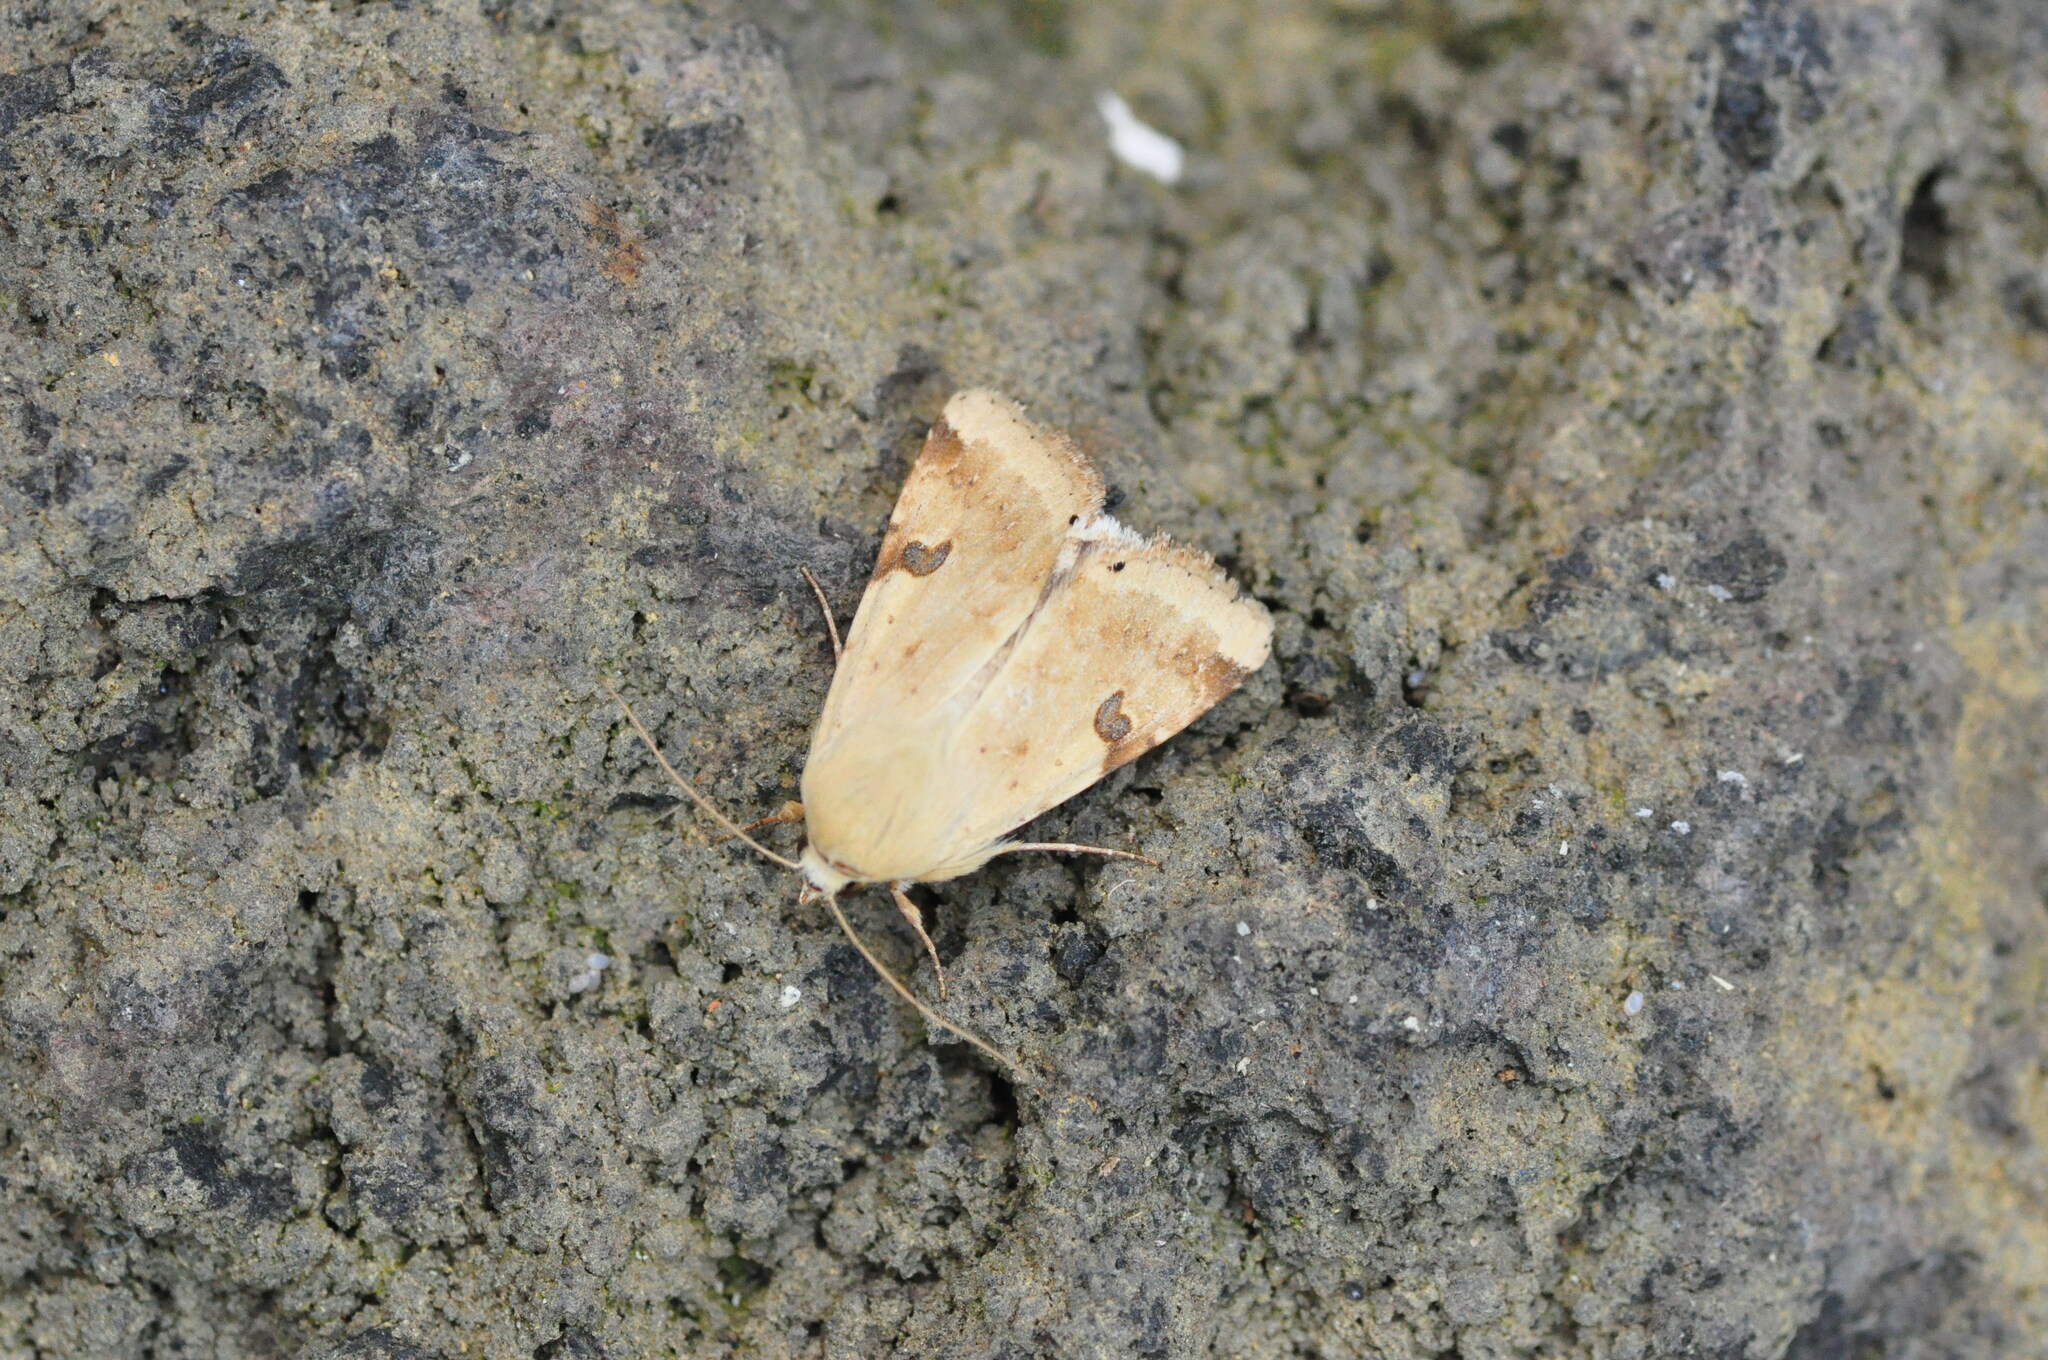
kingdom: Animalia
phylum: Arthropoda
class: Insecta
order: Lepidoptera
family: Noctuidae
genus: Heliothis
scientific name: Heliothis peltigera
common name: Bordered straw
